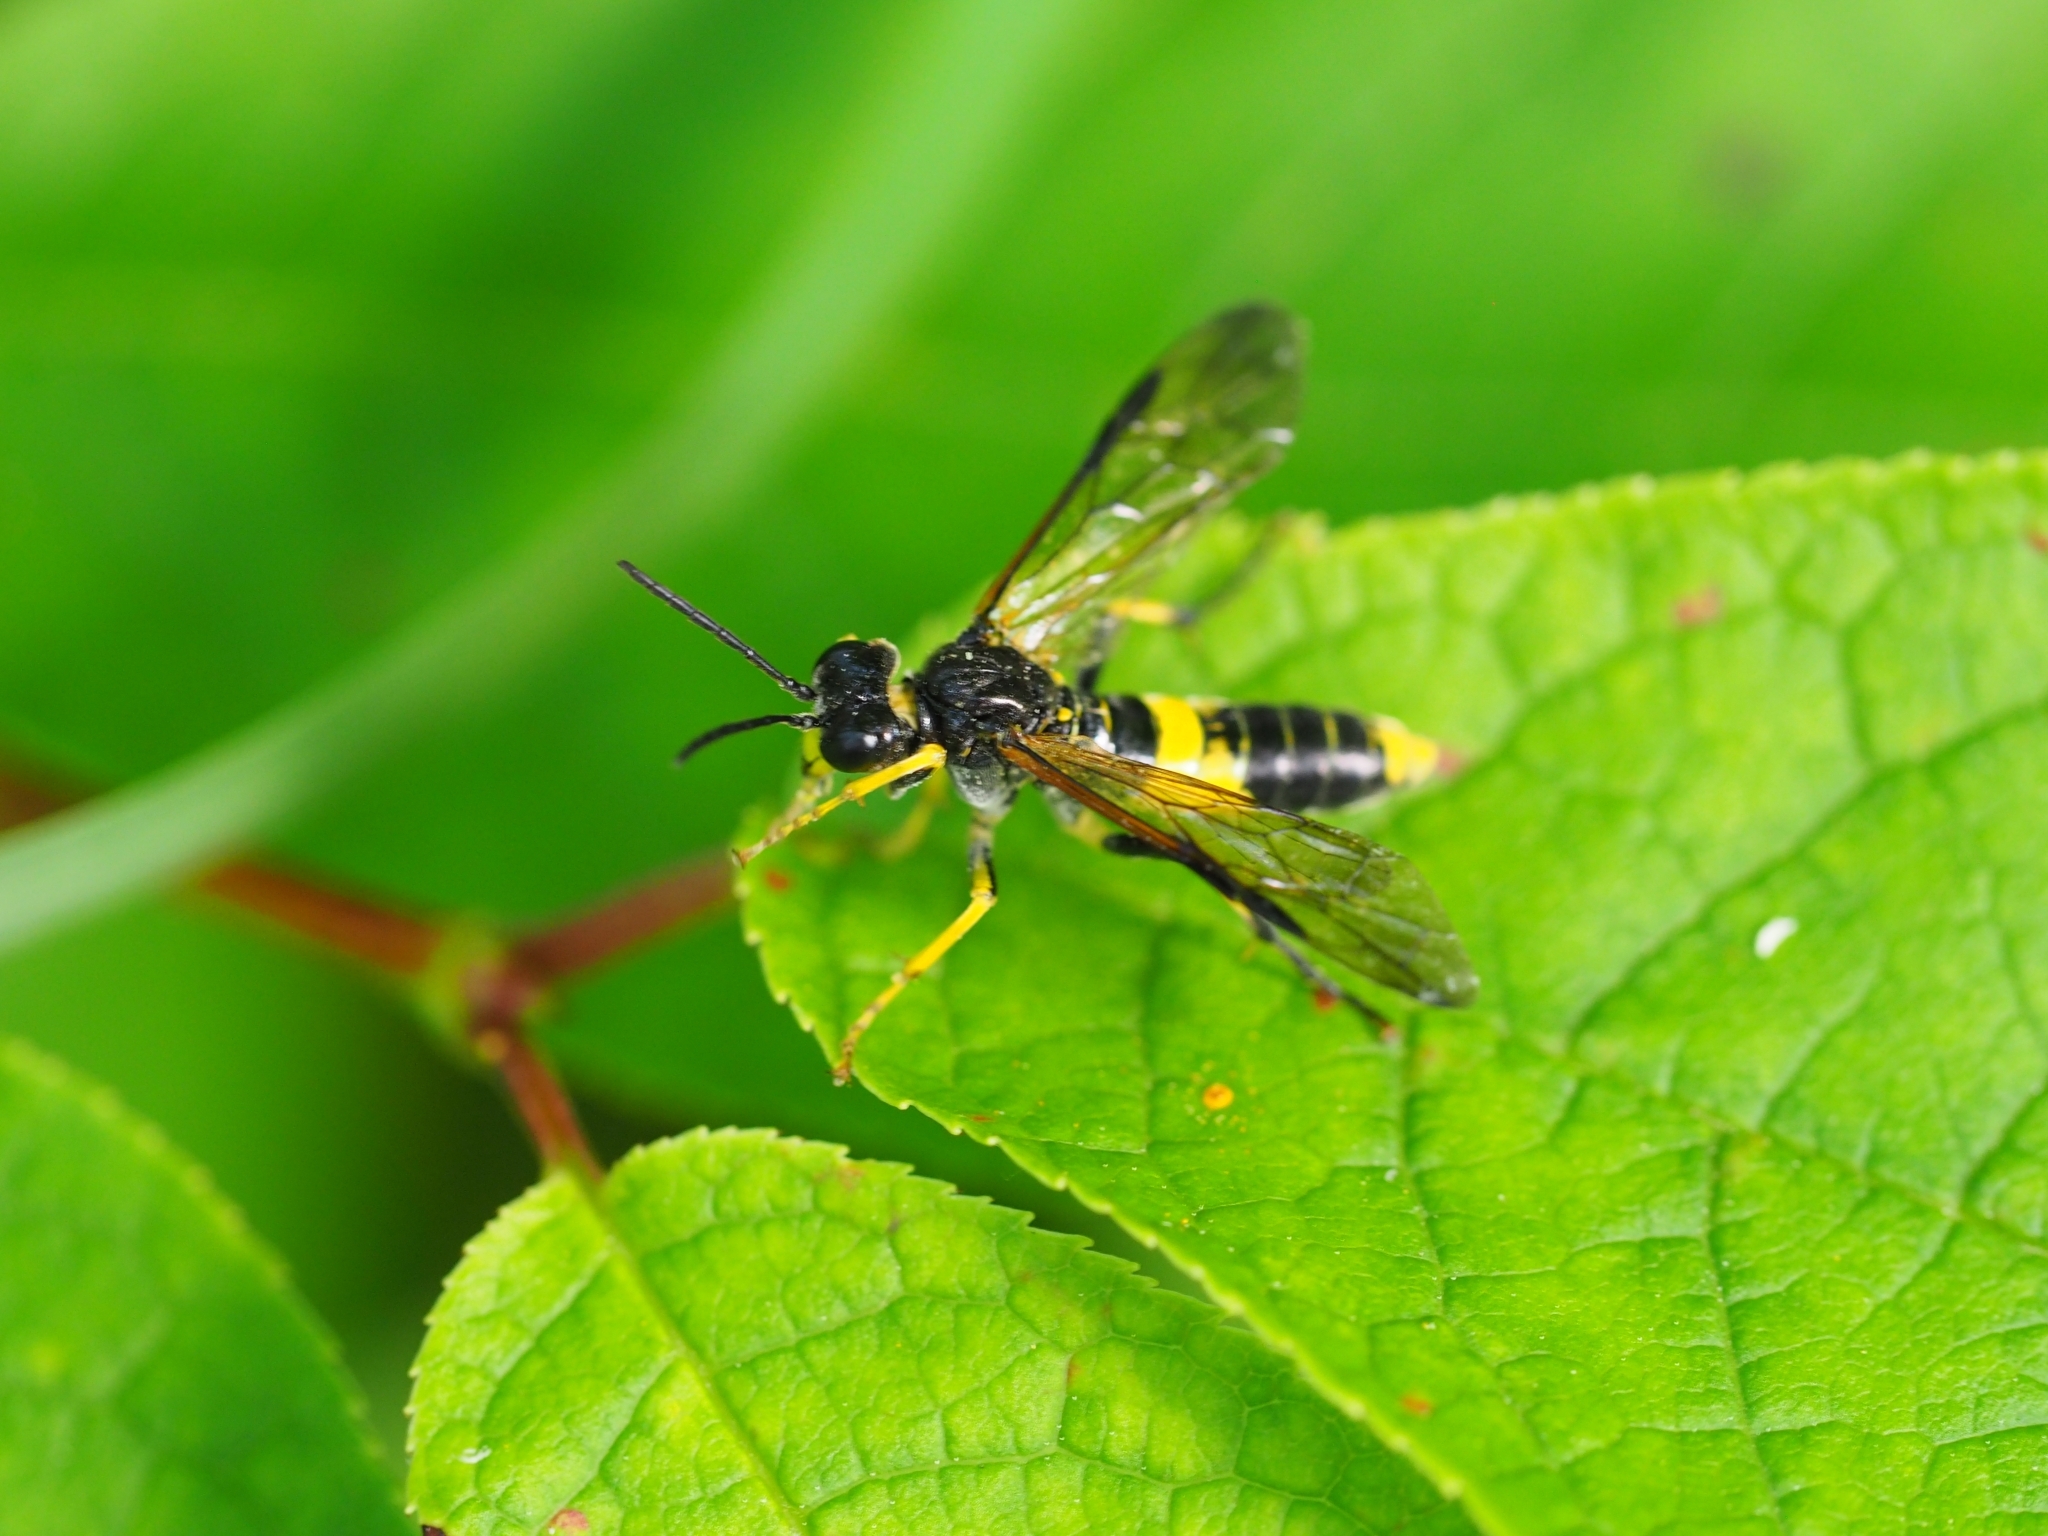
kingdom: Animalia
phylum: Arthropoda
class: Insecta
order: Hymenoptera
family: Tenthredinidae
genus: Tenthredo
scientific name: Tenthredo temula
